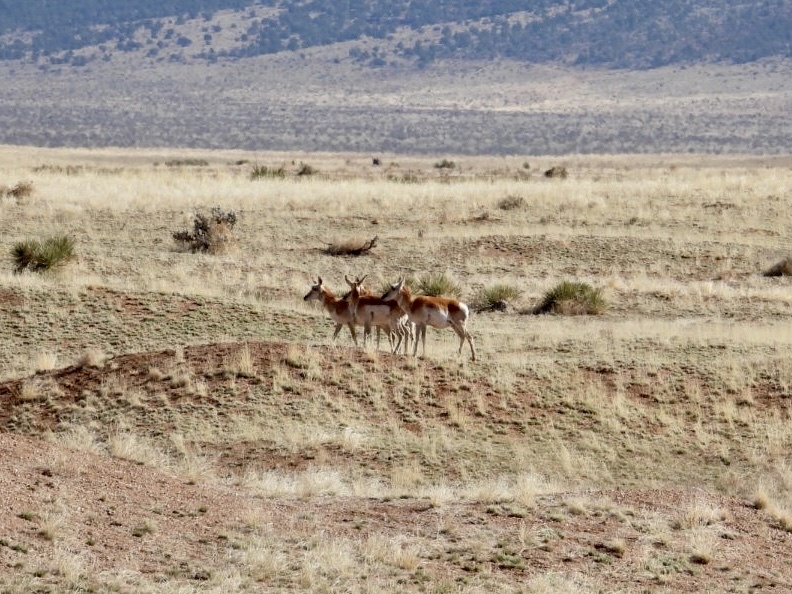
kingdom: Animalia
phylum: Chordata
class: Mammalia
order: Artiodactyla
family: Antilocapridae
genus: Antilocapra
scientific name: Antilocapra americana
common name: Pronghorn
